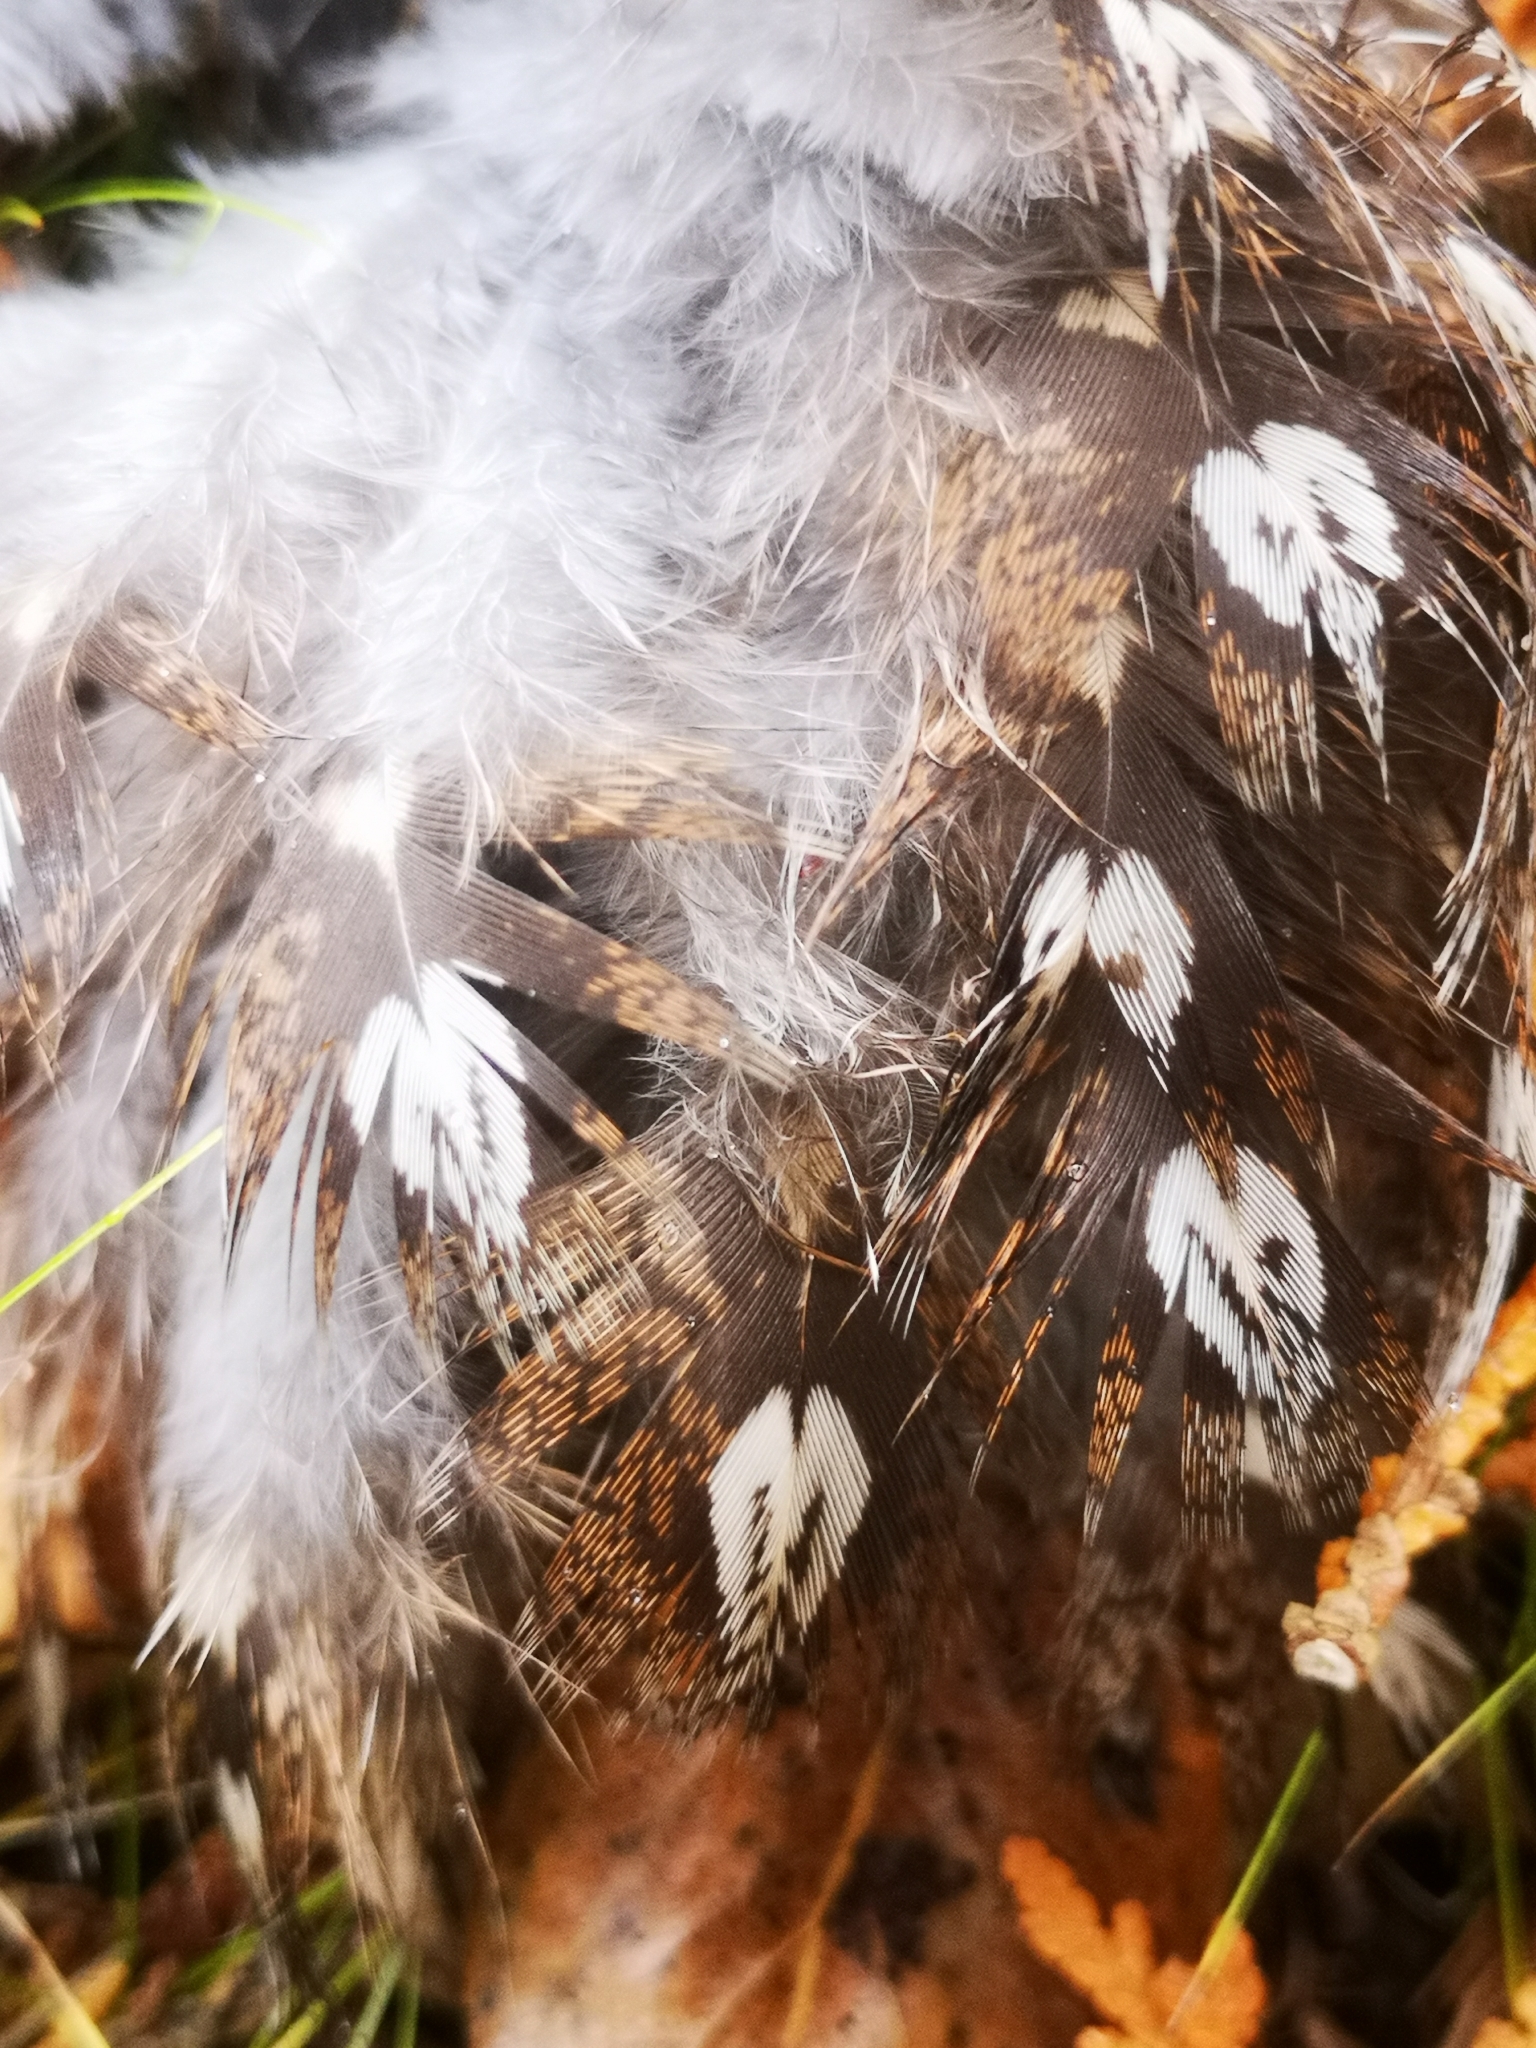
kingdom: Animalia
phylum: Chordata
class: Aves
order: Galliformes
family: Phasianidae
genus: Bonasa
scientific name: Bonasa umbellus
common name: Ruffed grouse
